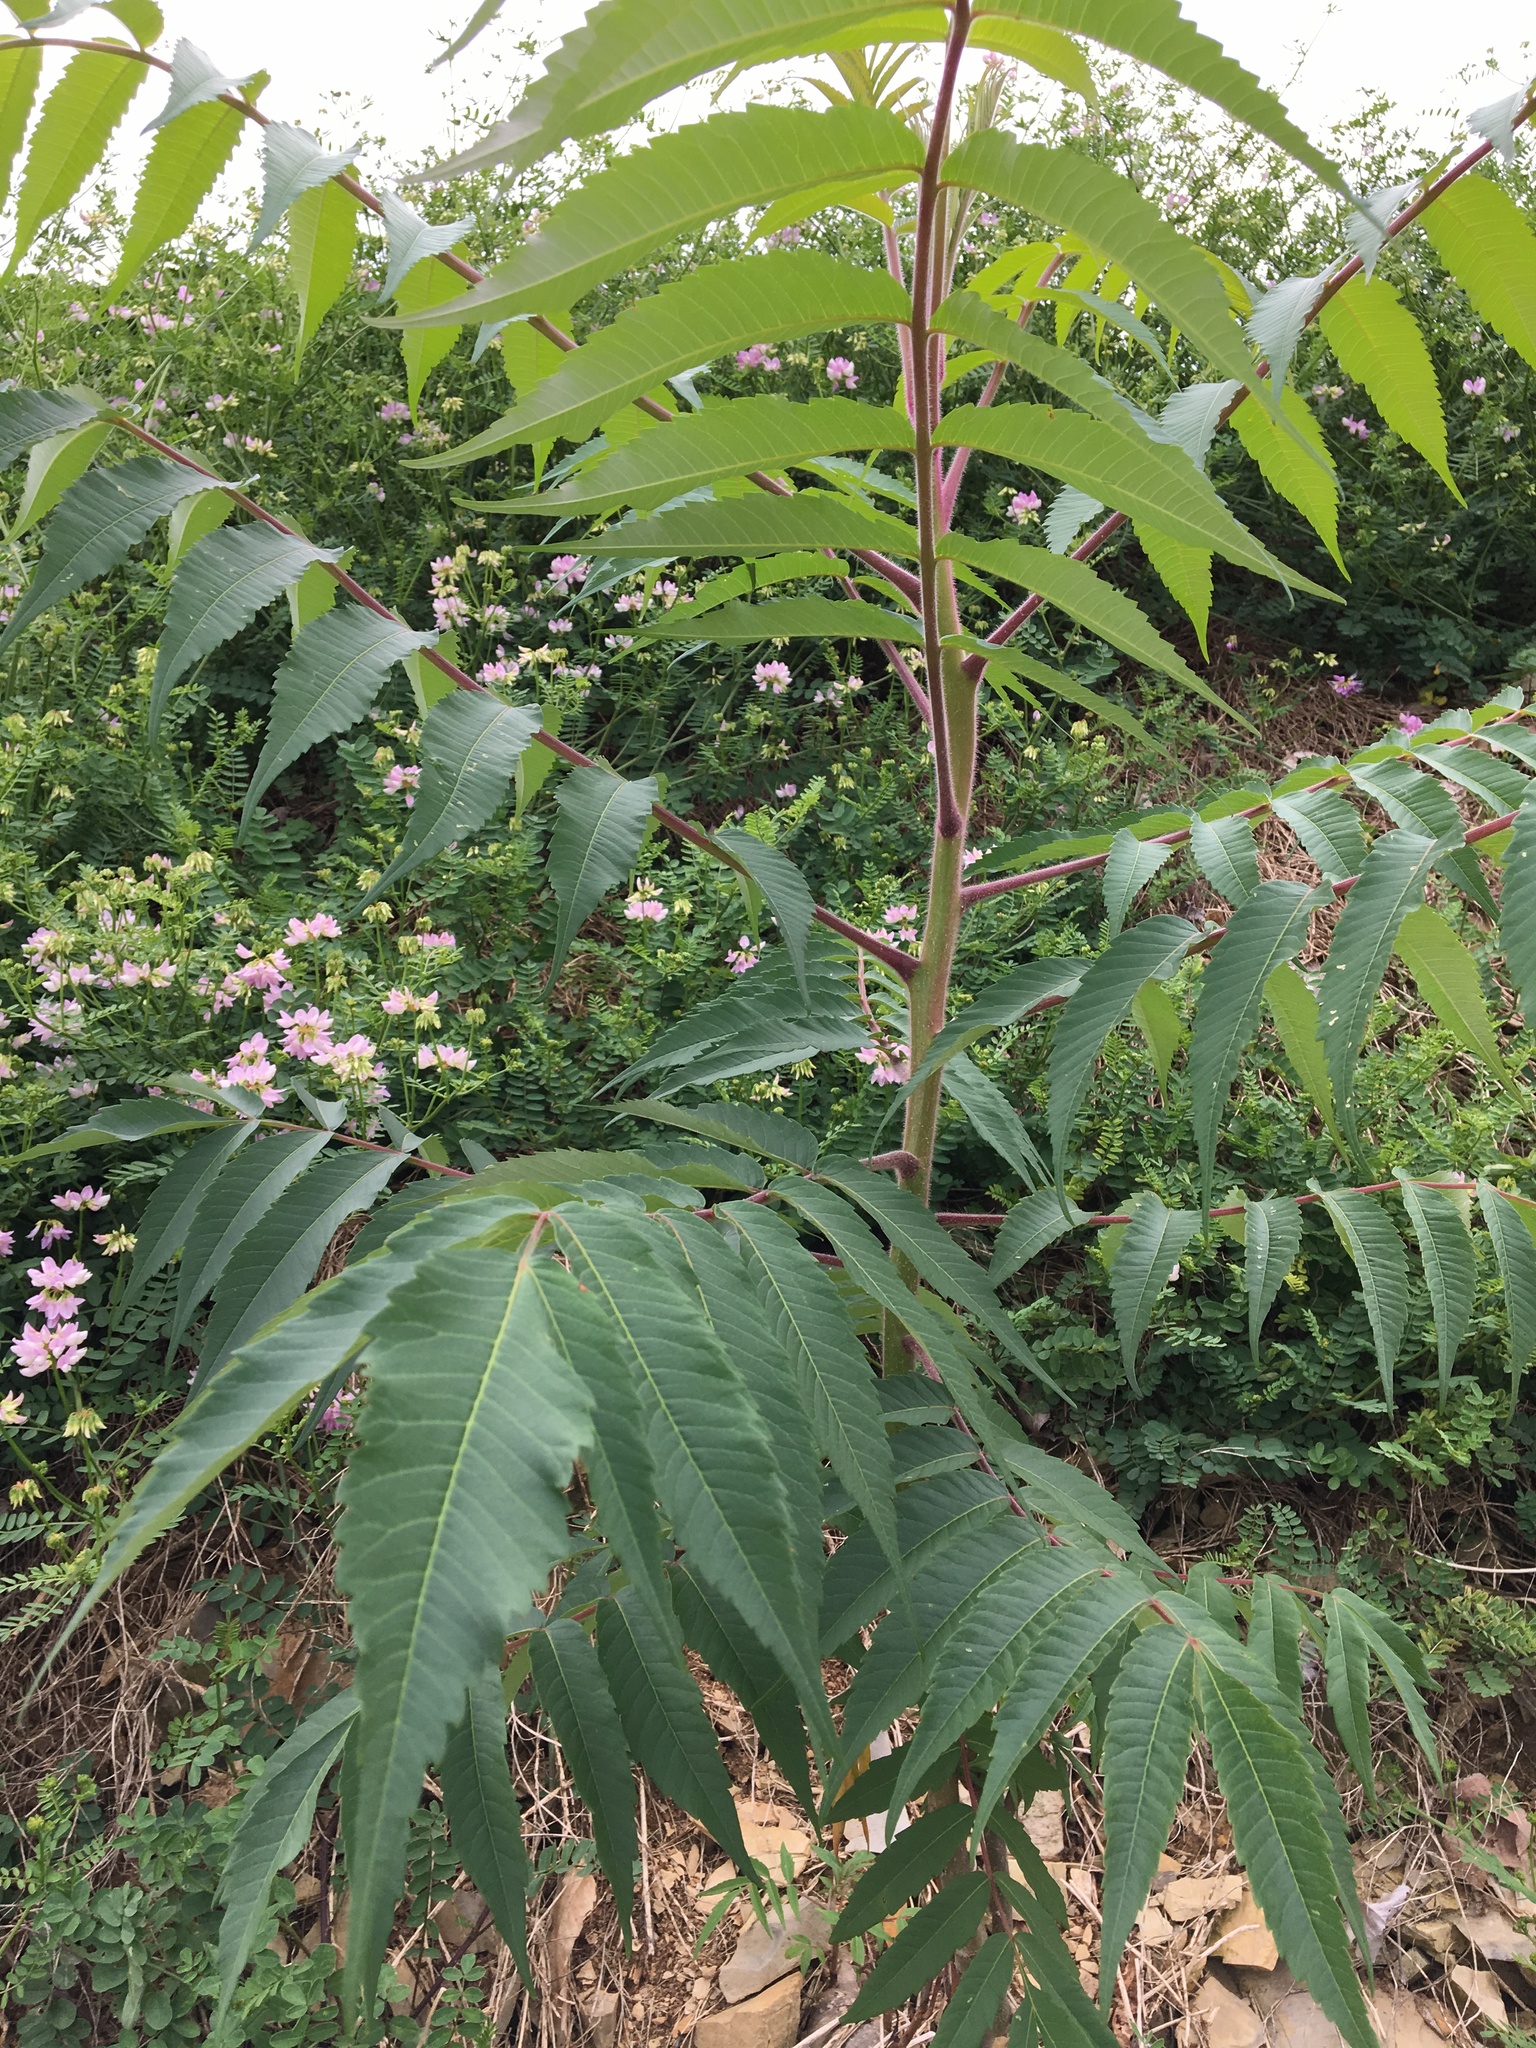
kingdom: Plantae
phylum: Tracheophyta
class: Magnoliopsida
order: Sapindales
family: Anacardiaceae
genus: Rhus
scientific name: Rhus typhina
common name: Staghorn sumac
